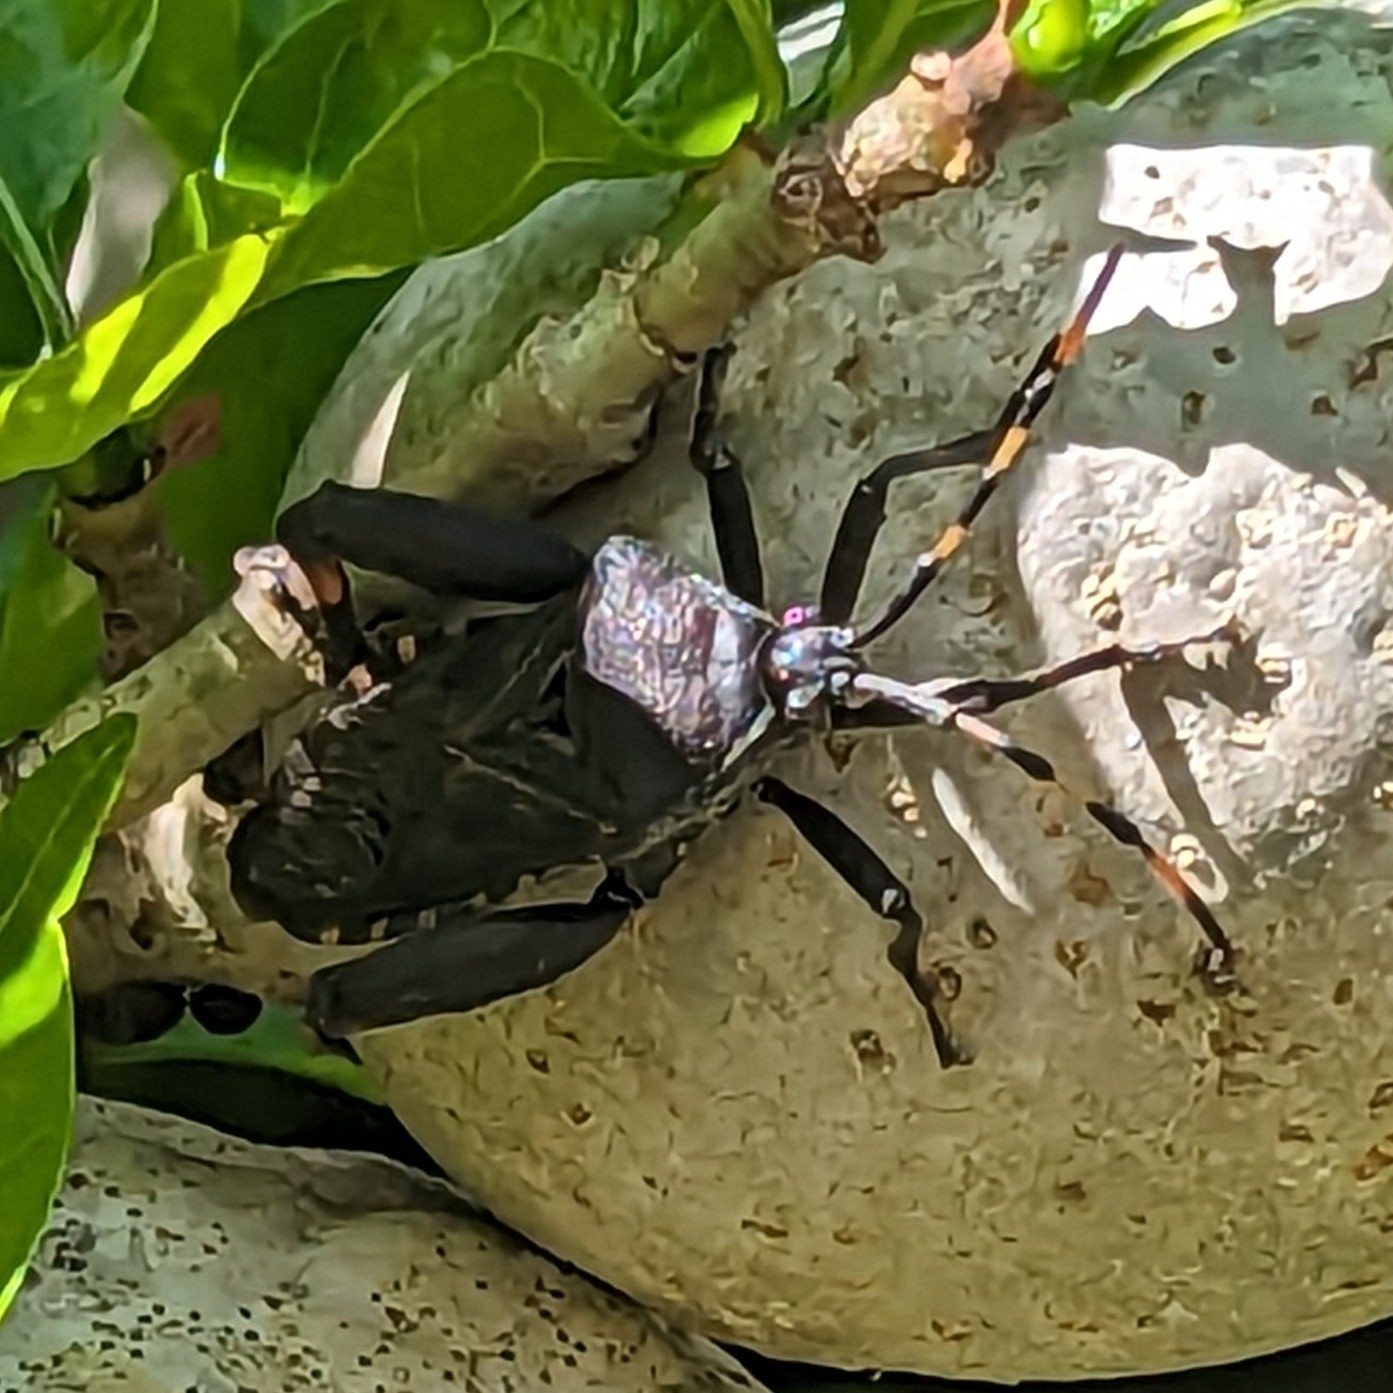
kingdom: Animalia
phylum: Arthropoda
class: Insecta
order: Hemiptera
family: Coreidae
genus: Carlisis
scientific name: Carlisis wahlbergi
